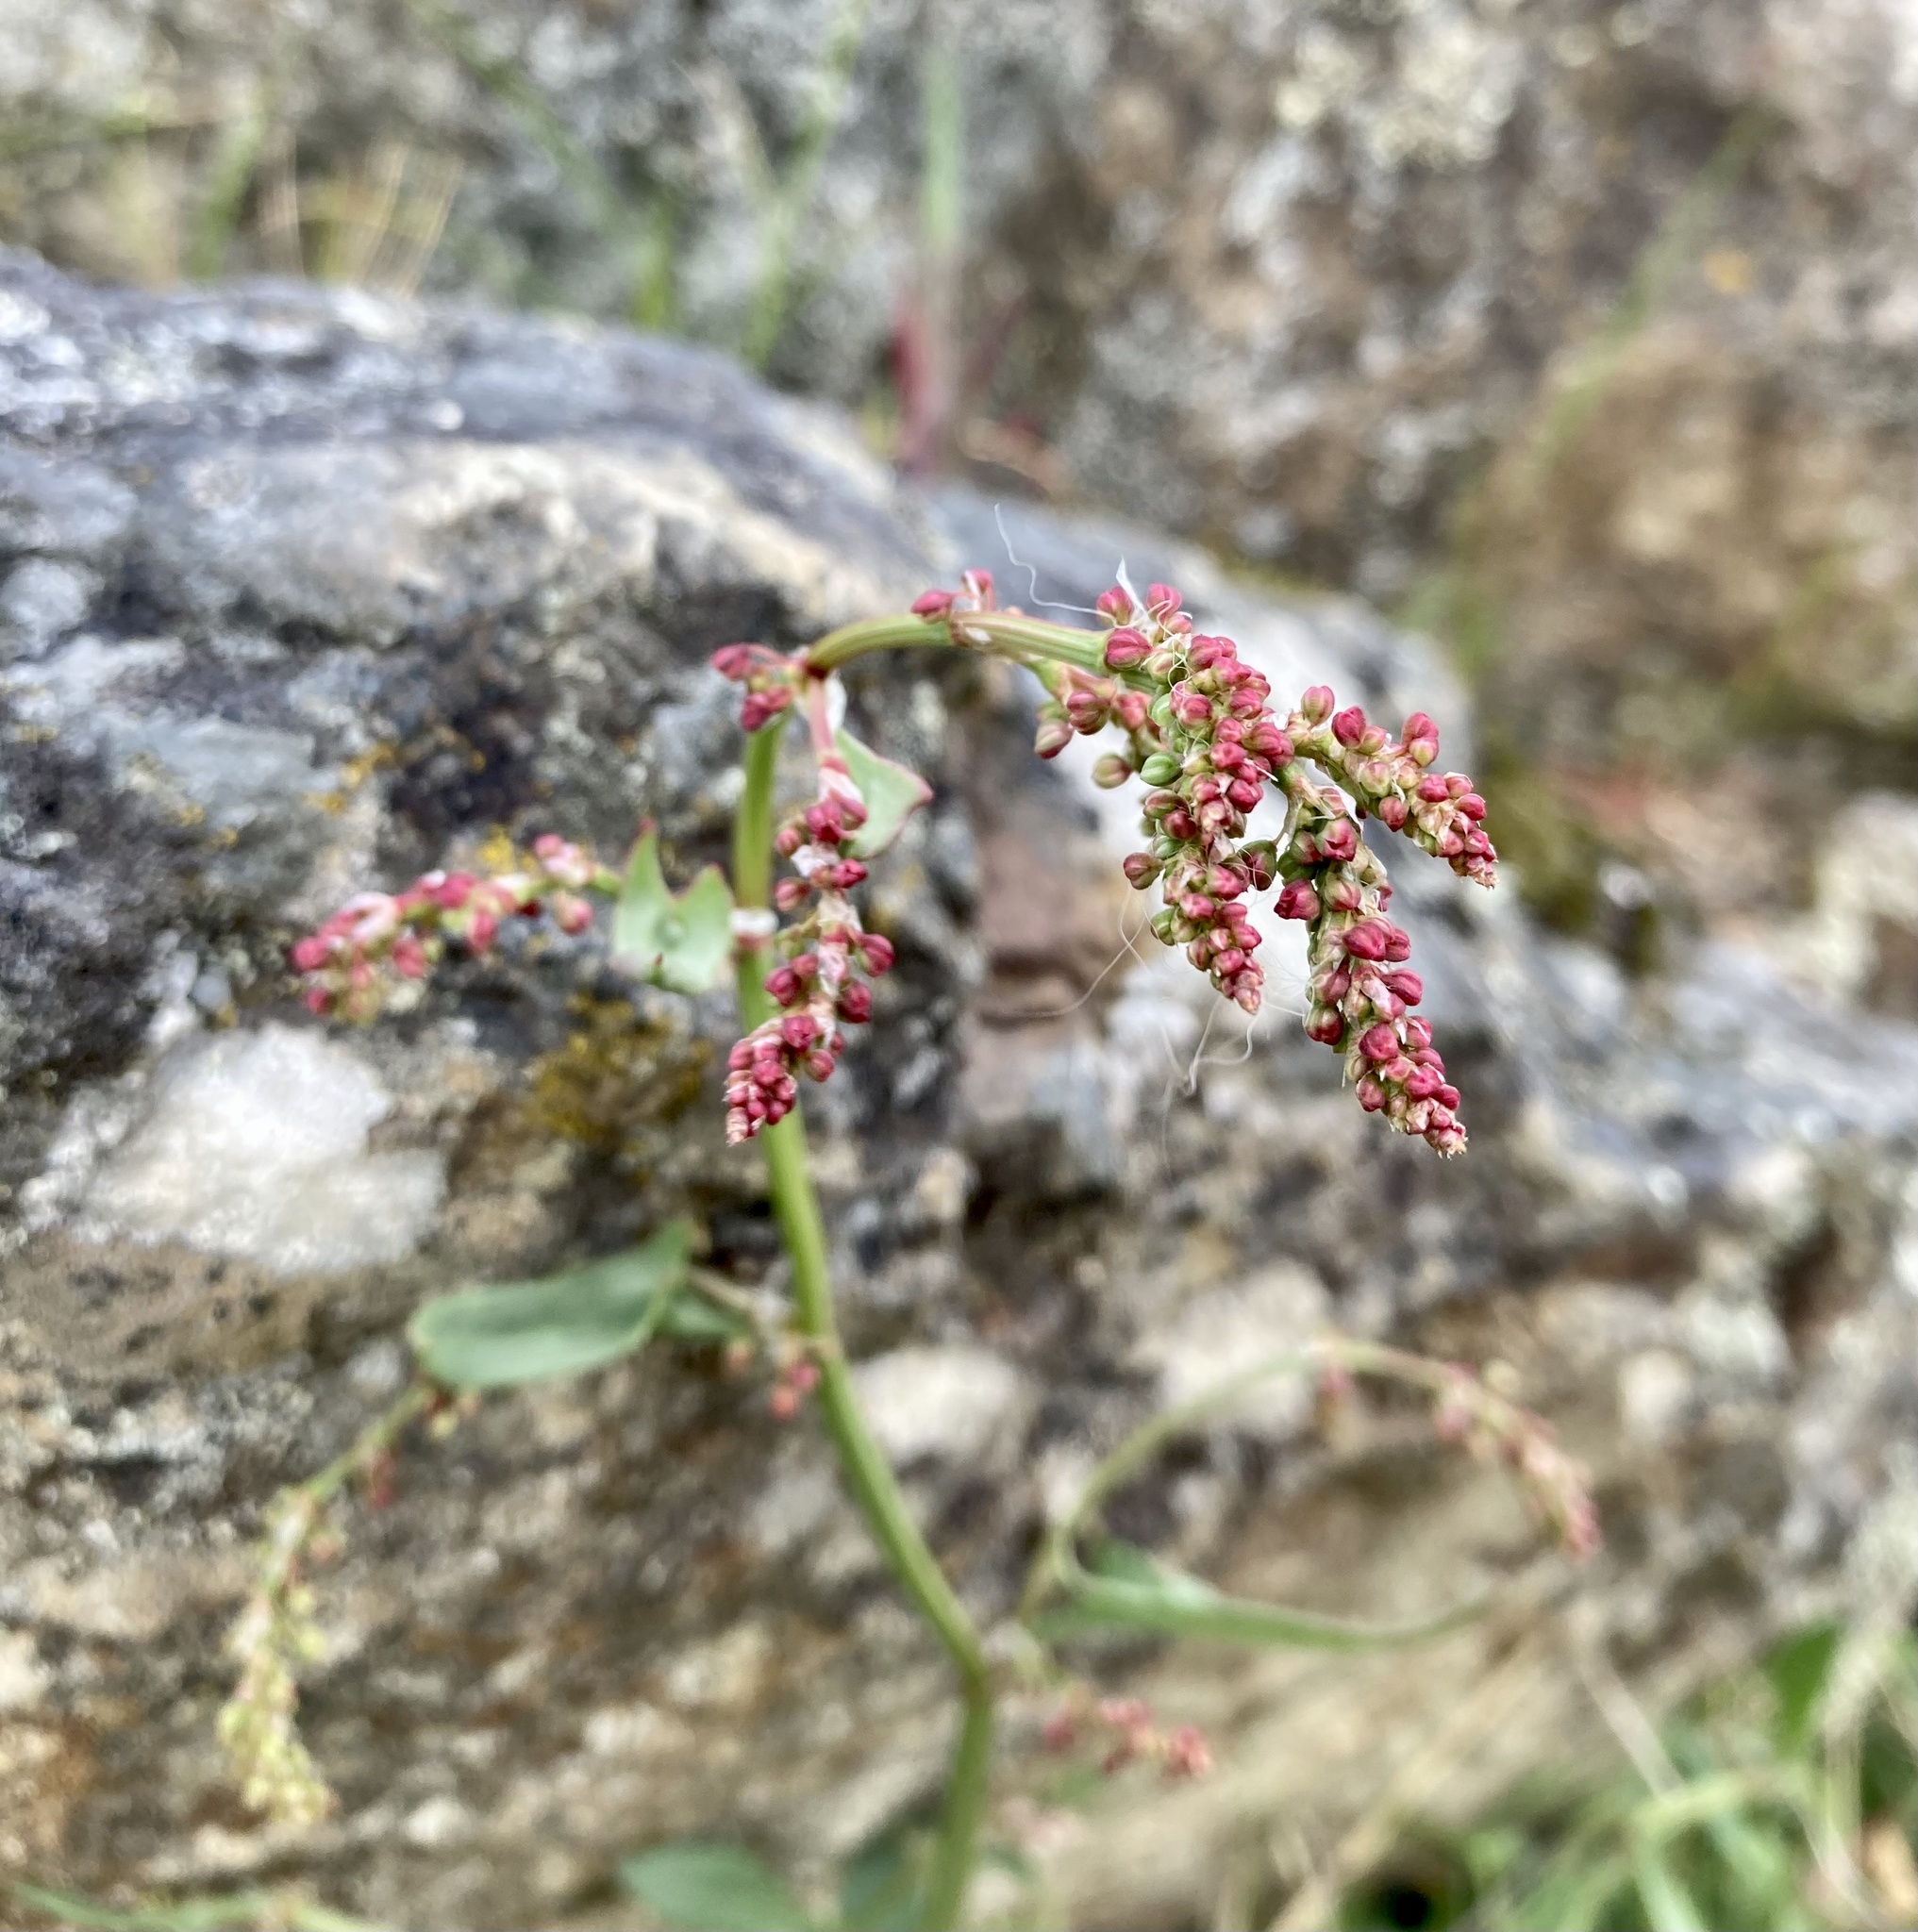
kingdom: Plantae
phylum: Tracheophyta
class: Magnoliopsida
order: Caryophyllales
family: Polygonaceae
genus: Rumex
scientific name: Rumex acetosella
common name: Common sheep sorrel
